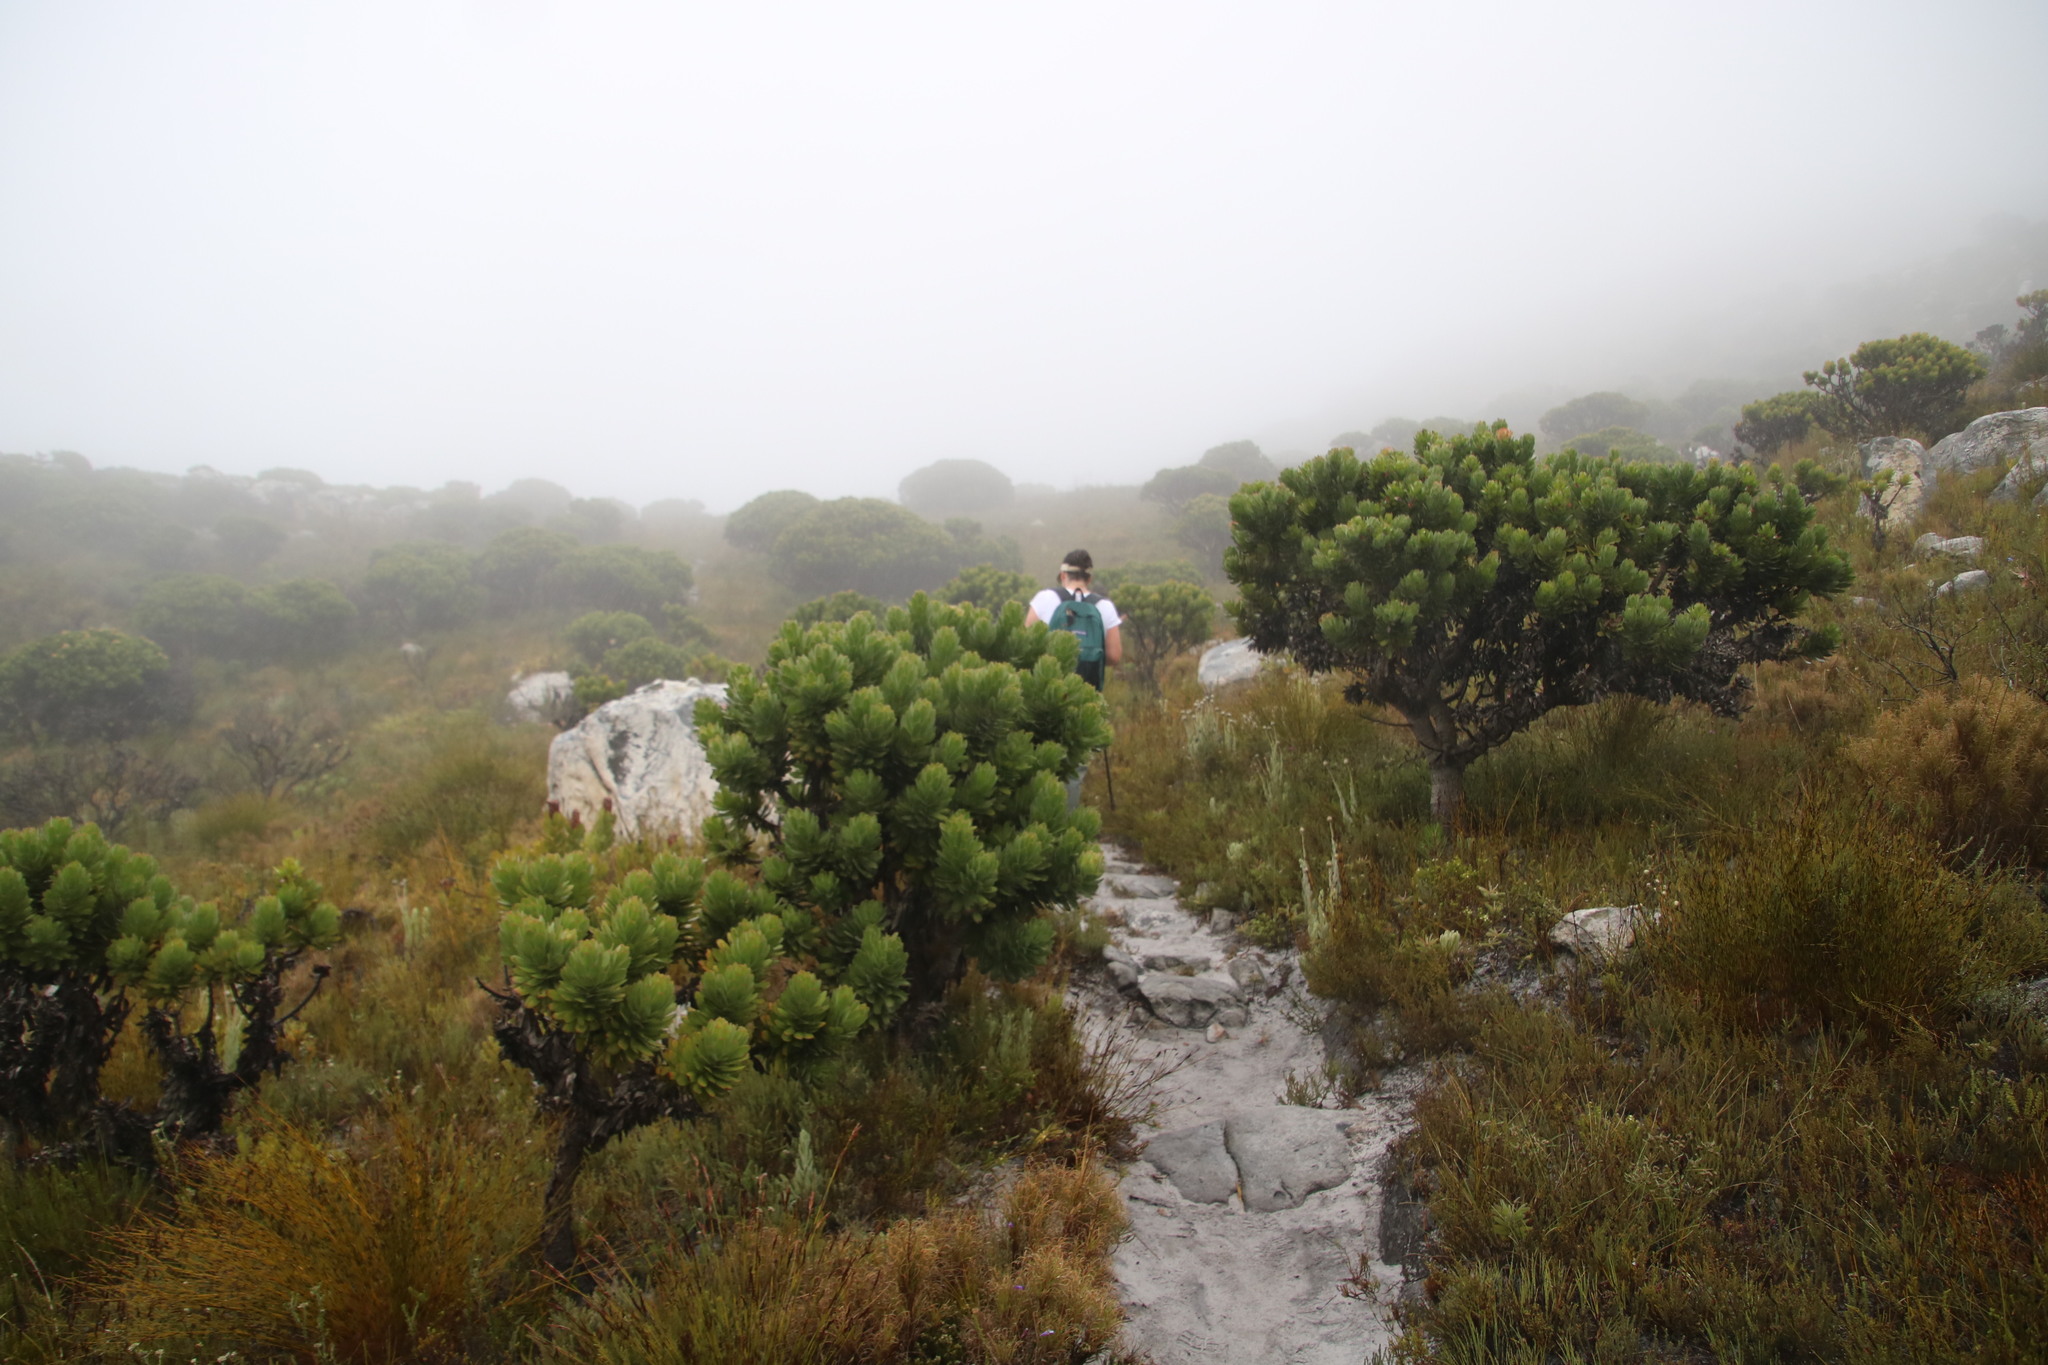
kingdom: Plantae
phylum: Tracheophyta
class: Magnoliopsida
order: Proteales
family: Proteaceae
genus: Mimetes
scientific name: Mimetes fimbriifolius
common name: Fringed bottlebrush
